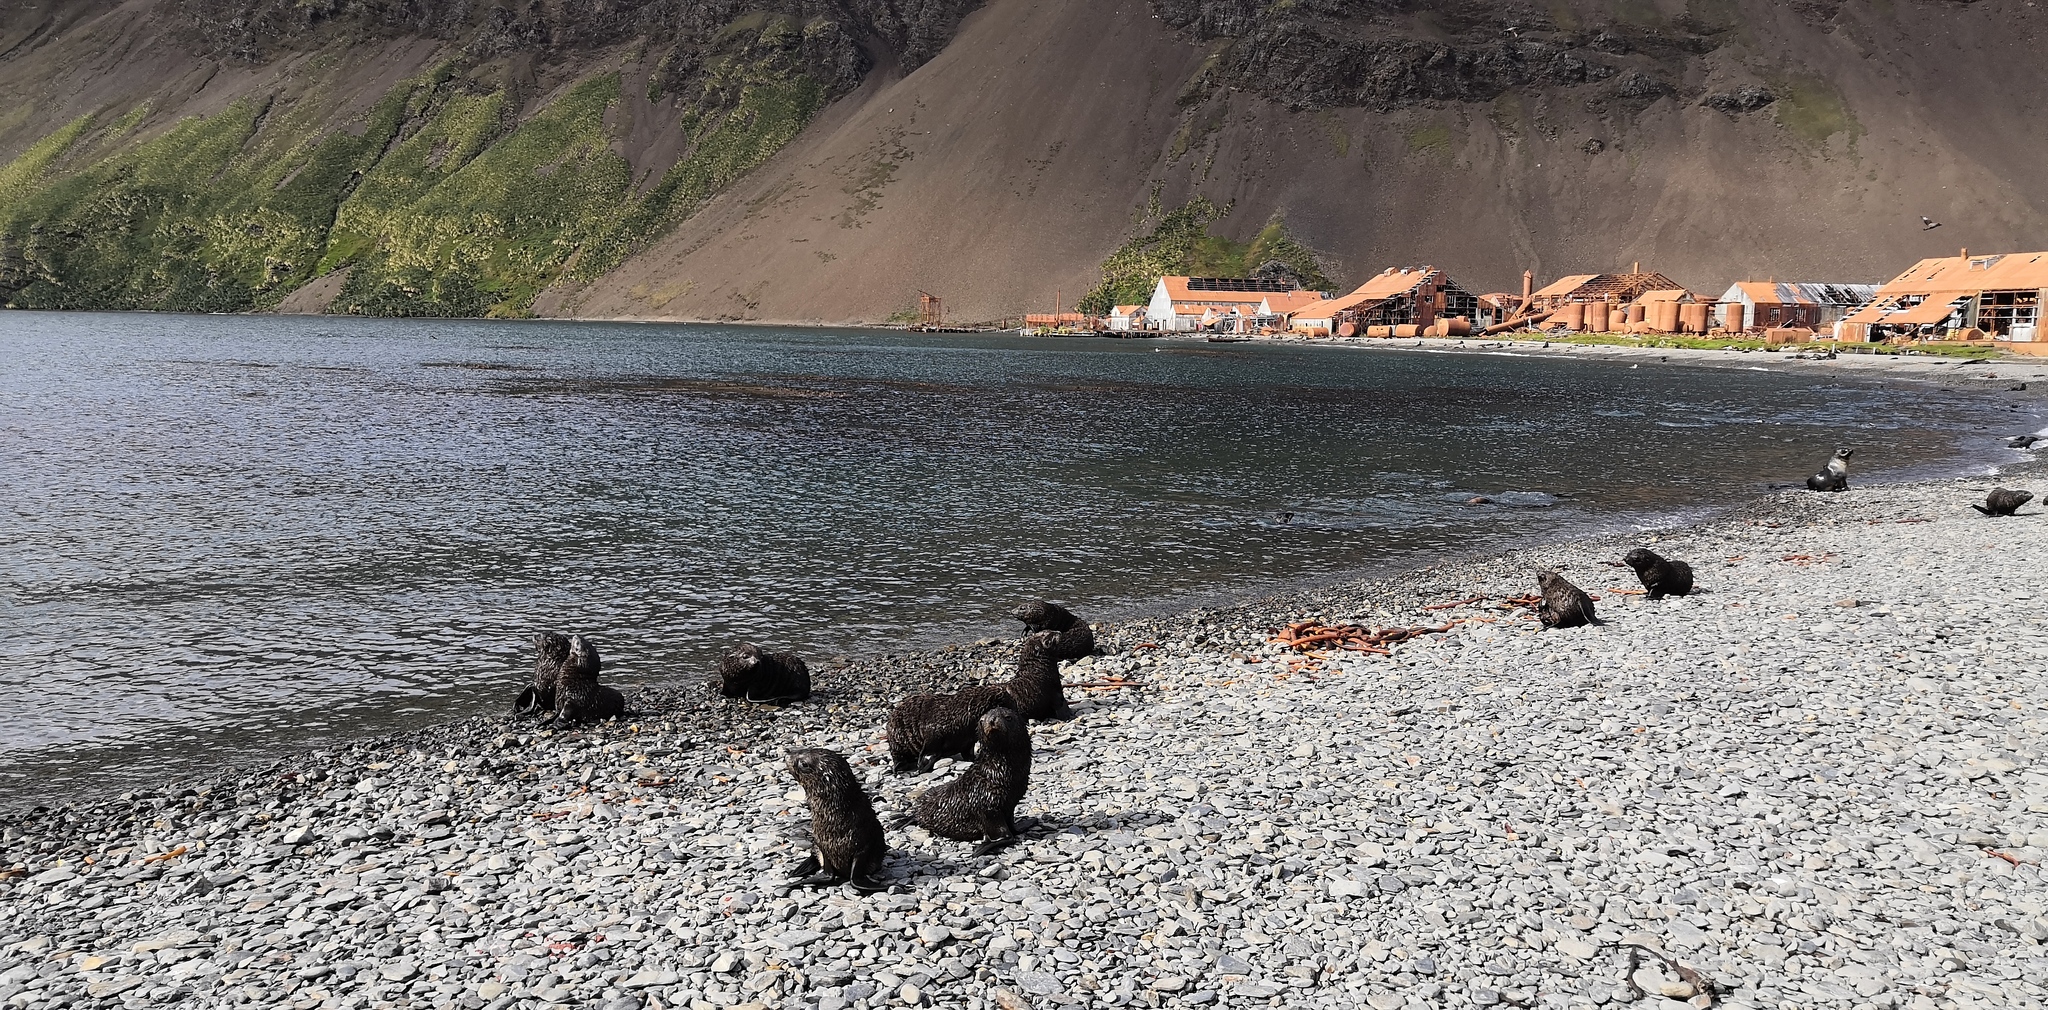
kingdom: Animalia
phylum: Chordata
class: Mammalia
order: Carnivora
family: Otariidae
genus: Arctocephalus
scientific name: Arctocephalus gazella
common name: Antarctic fur seal
